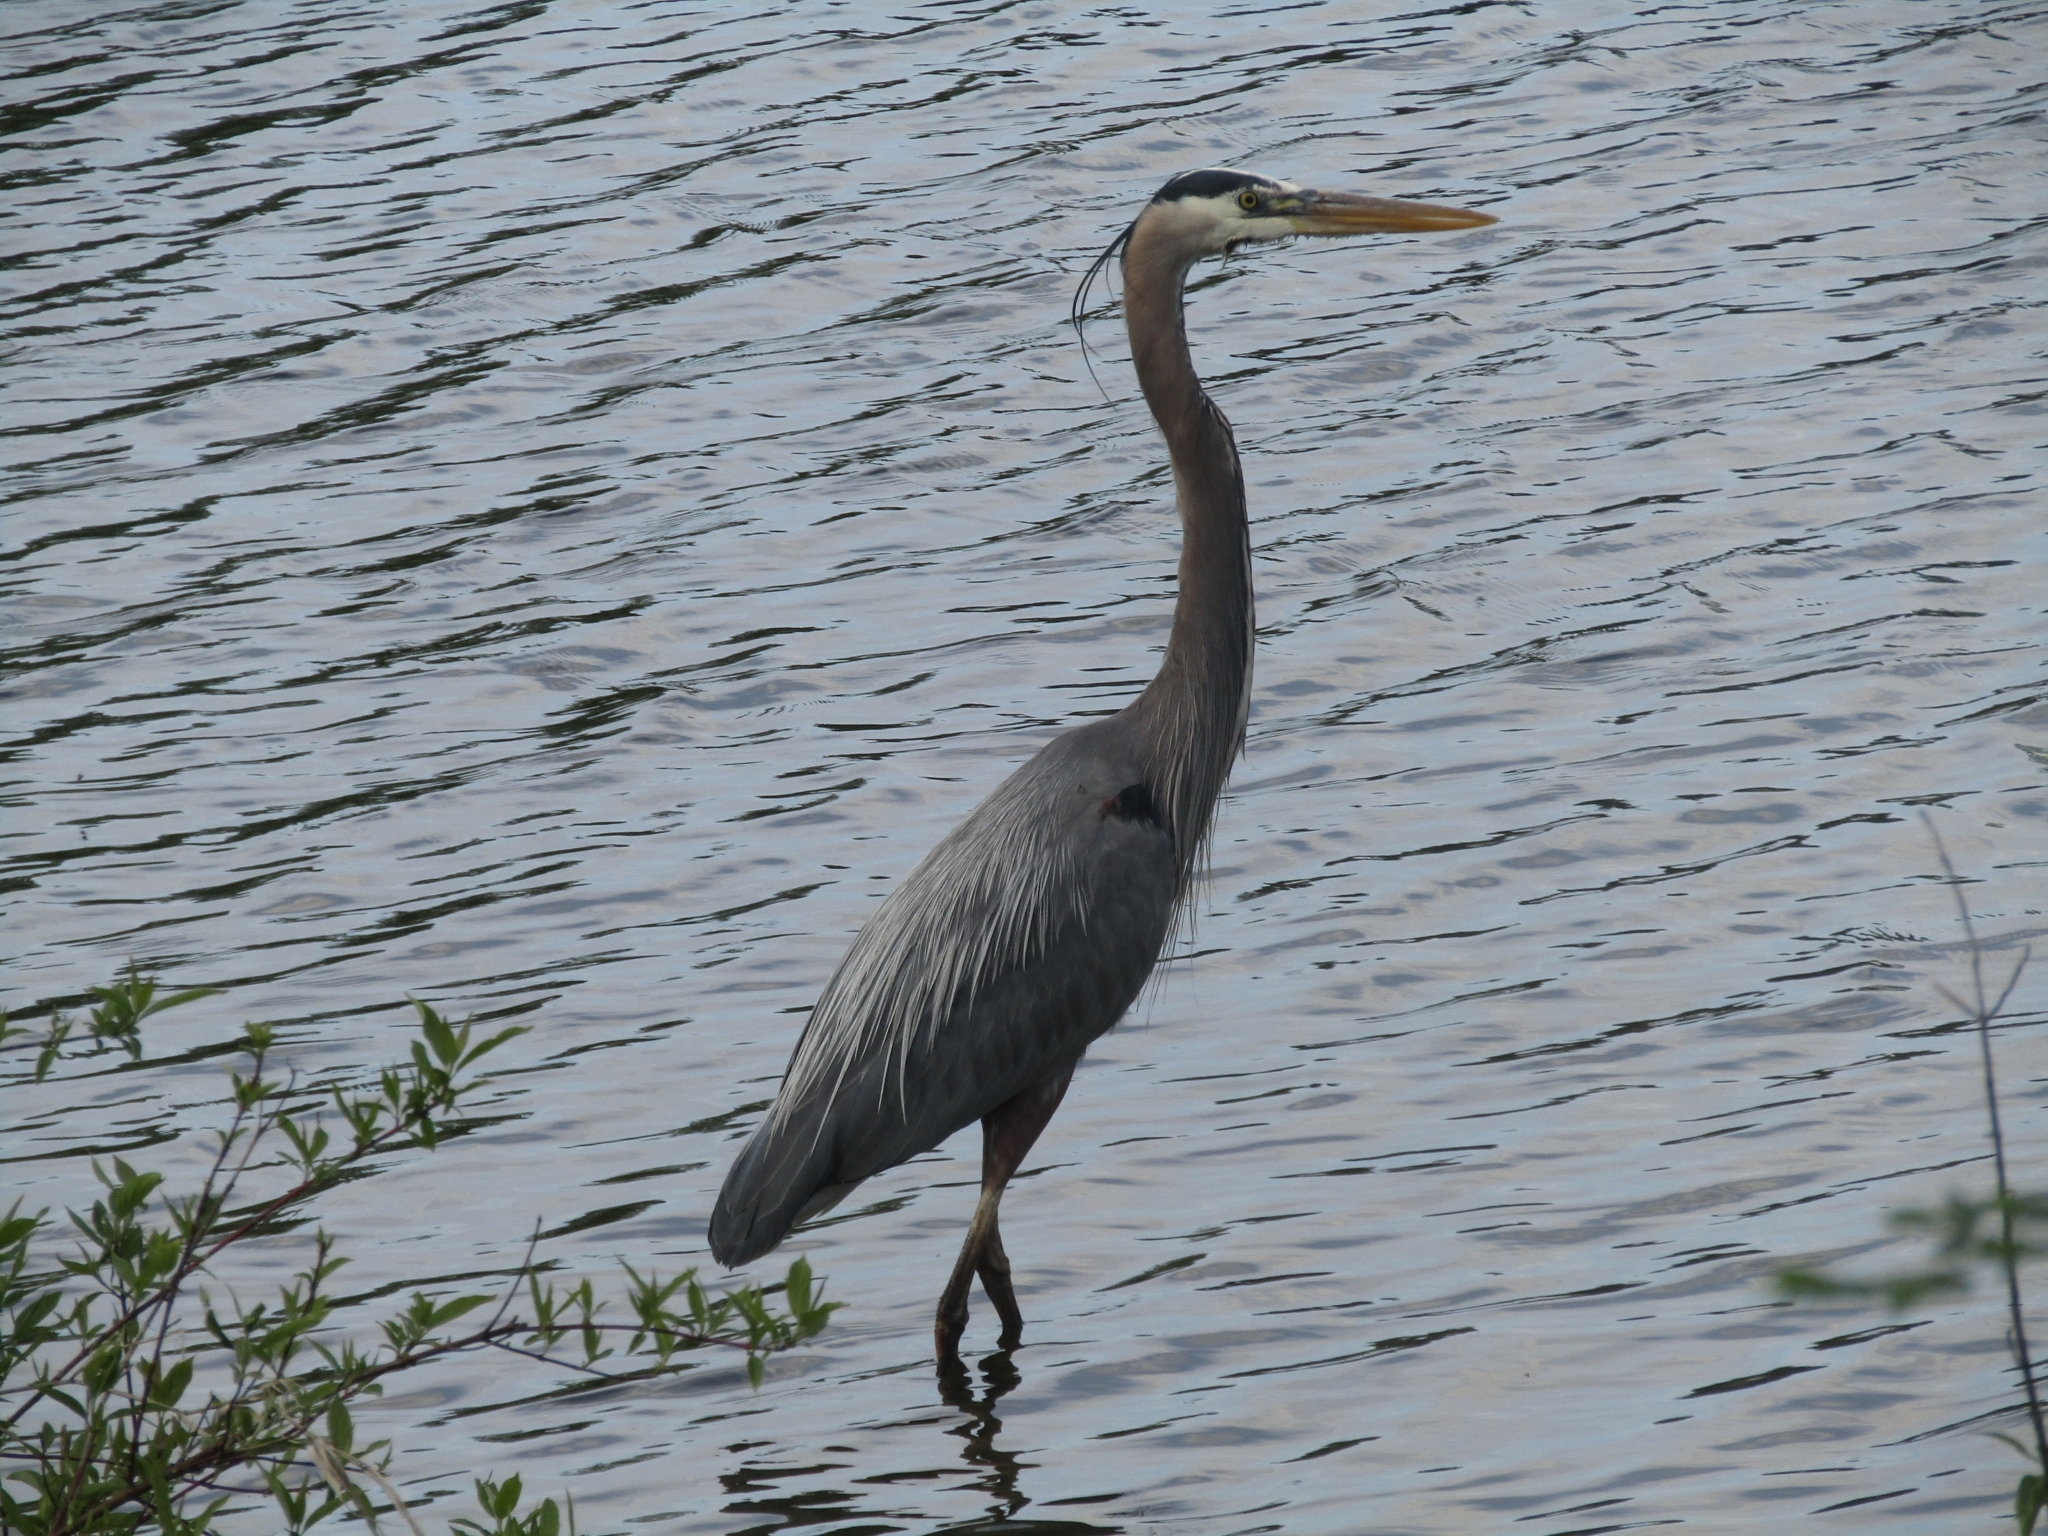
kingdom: Animalia
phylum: Chordata
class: Aves
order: Pelecaniformes
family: Ardeidae
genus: Ardea
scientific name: Ardea herodias
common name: Great blue heron
